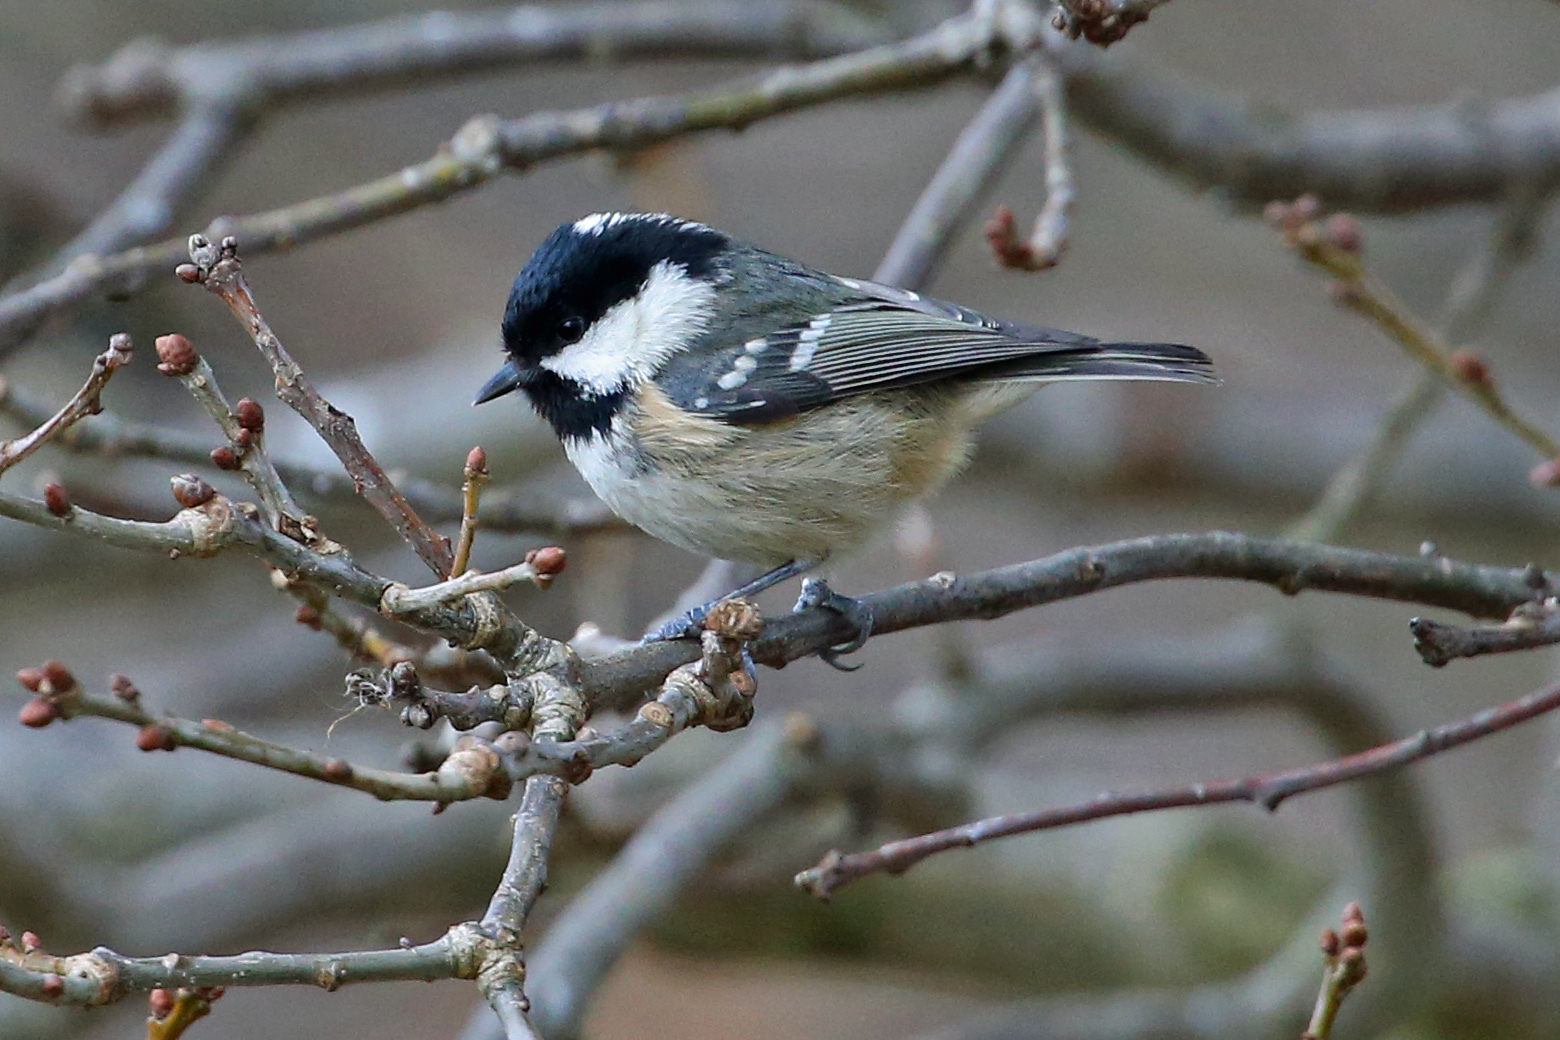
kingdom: Animalia
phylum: Chordata
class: Aves
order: Passeriformes
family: Paridae
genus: Periparus
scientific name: Periparus ater
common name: Coal tit
